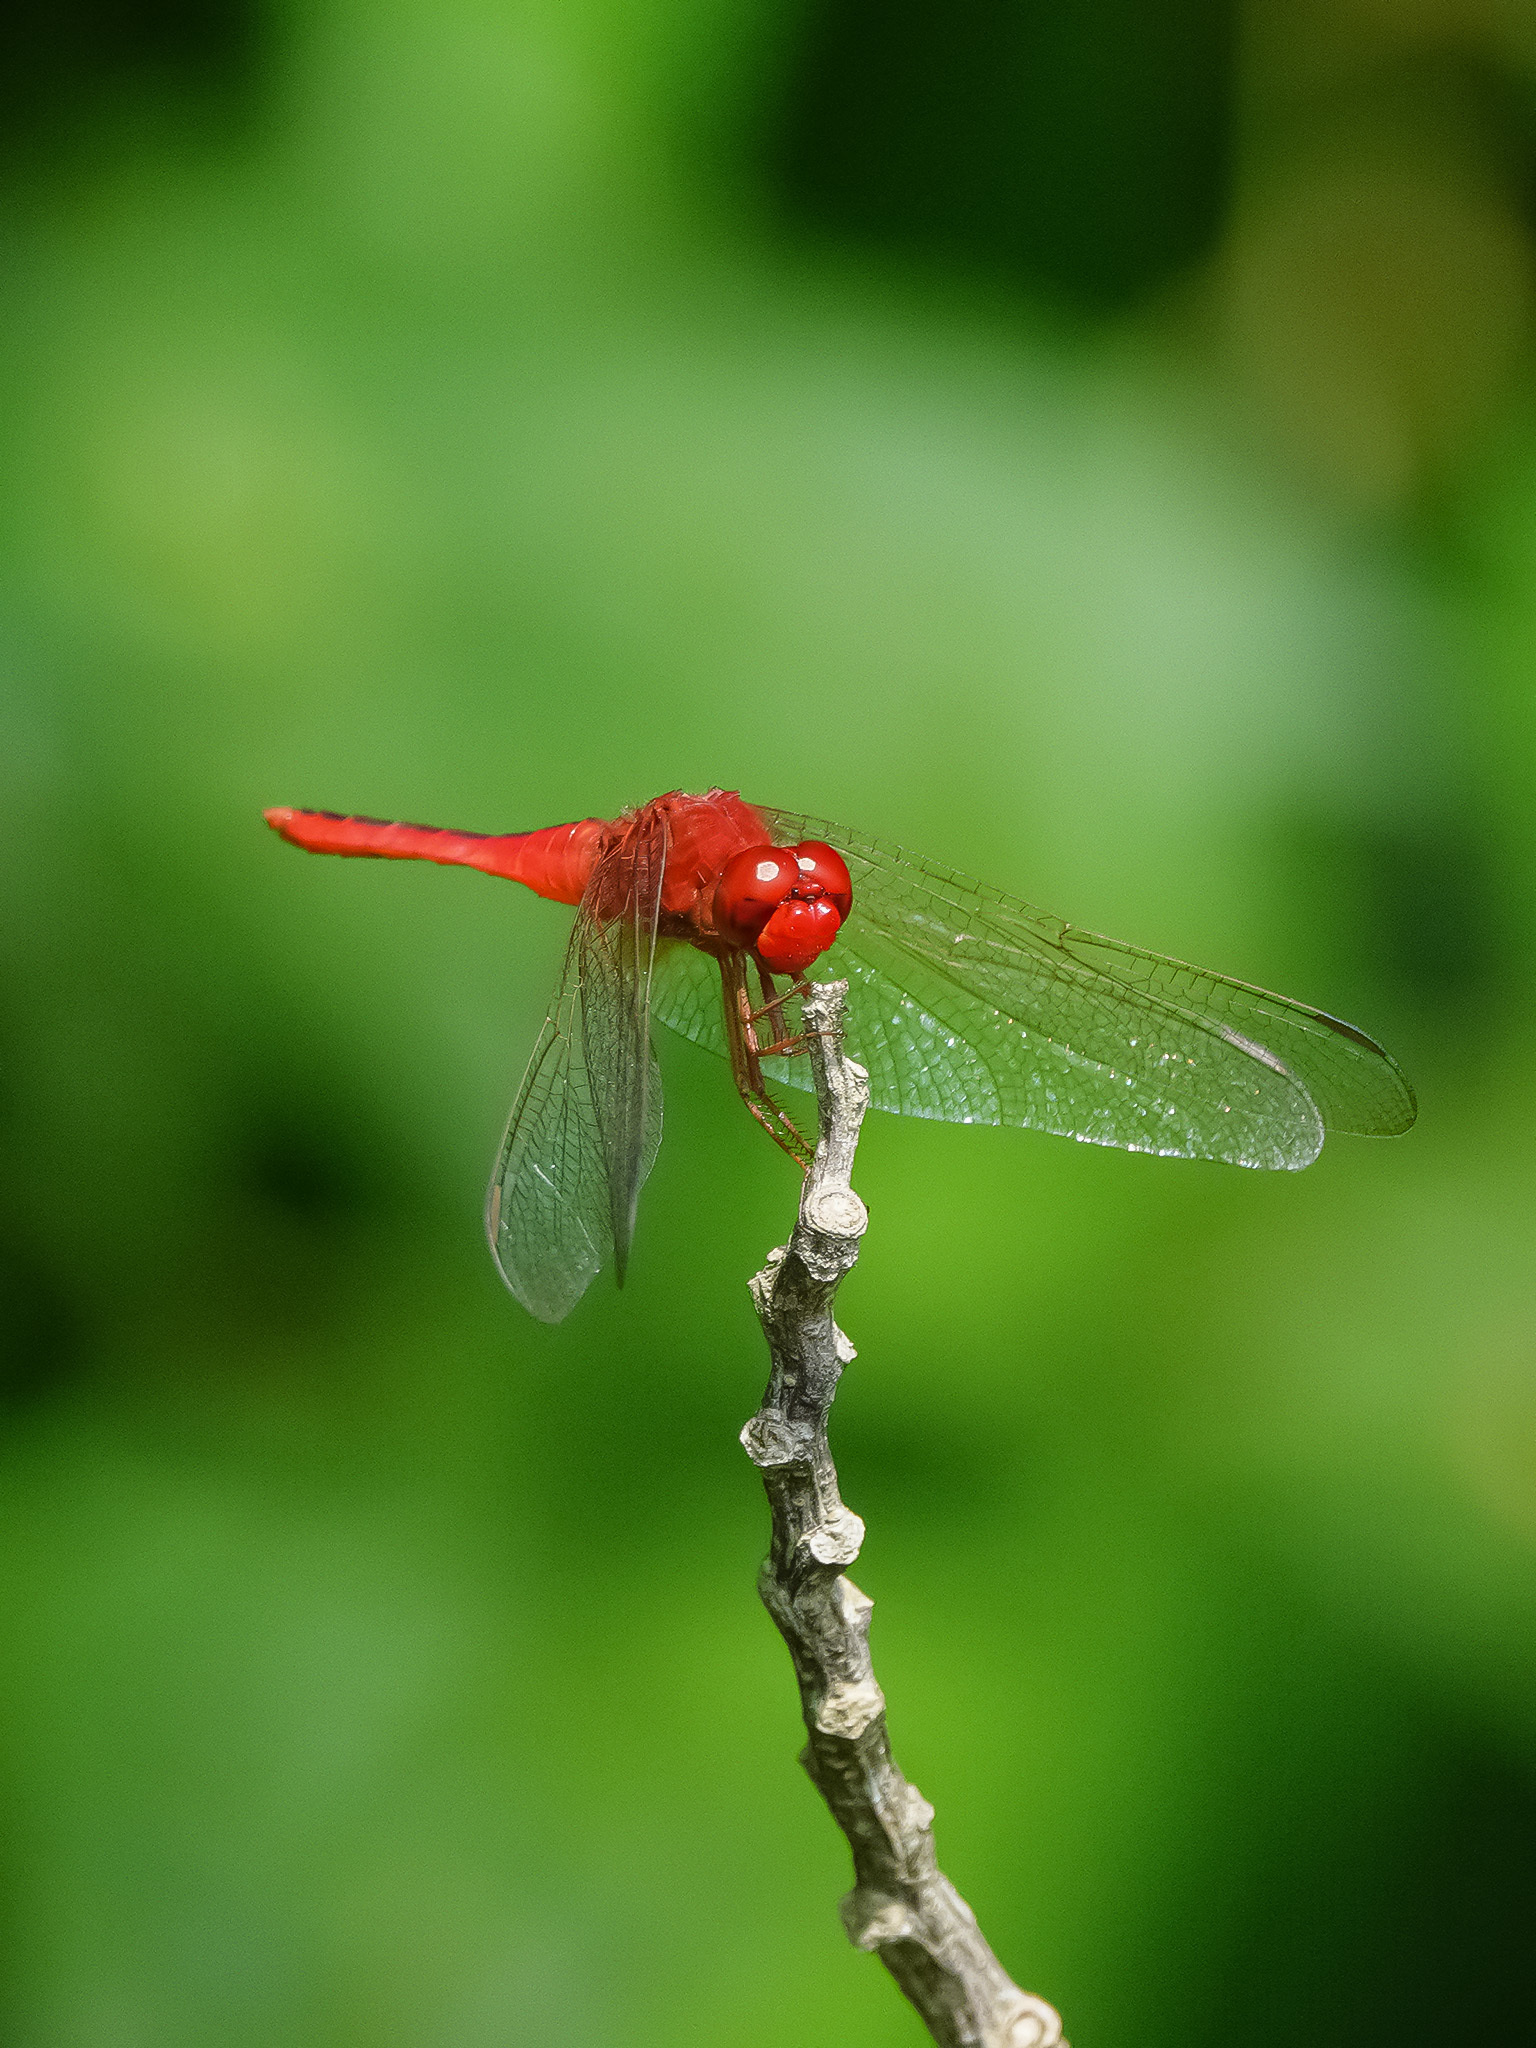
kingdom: Animalia
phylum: Arthropoda
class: Insecta
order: Odonata
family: Libellulidae
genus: Crocothemis
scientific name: Crocothemis servilia
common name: Scarlet skimmer
